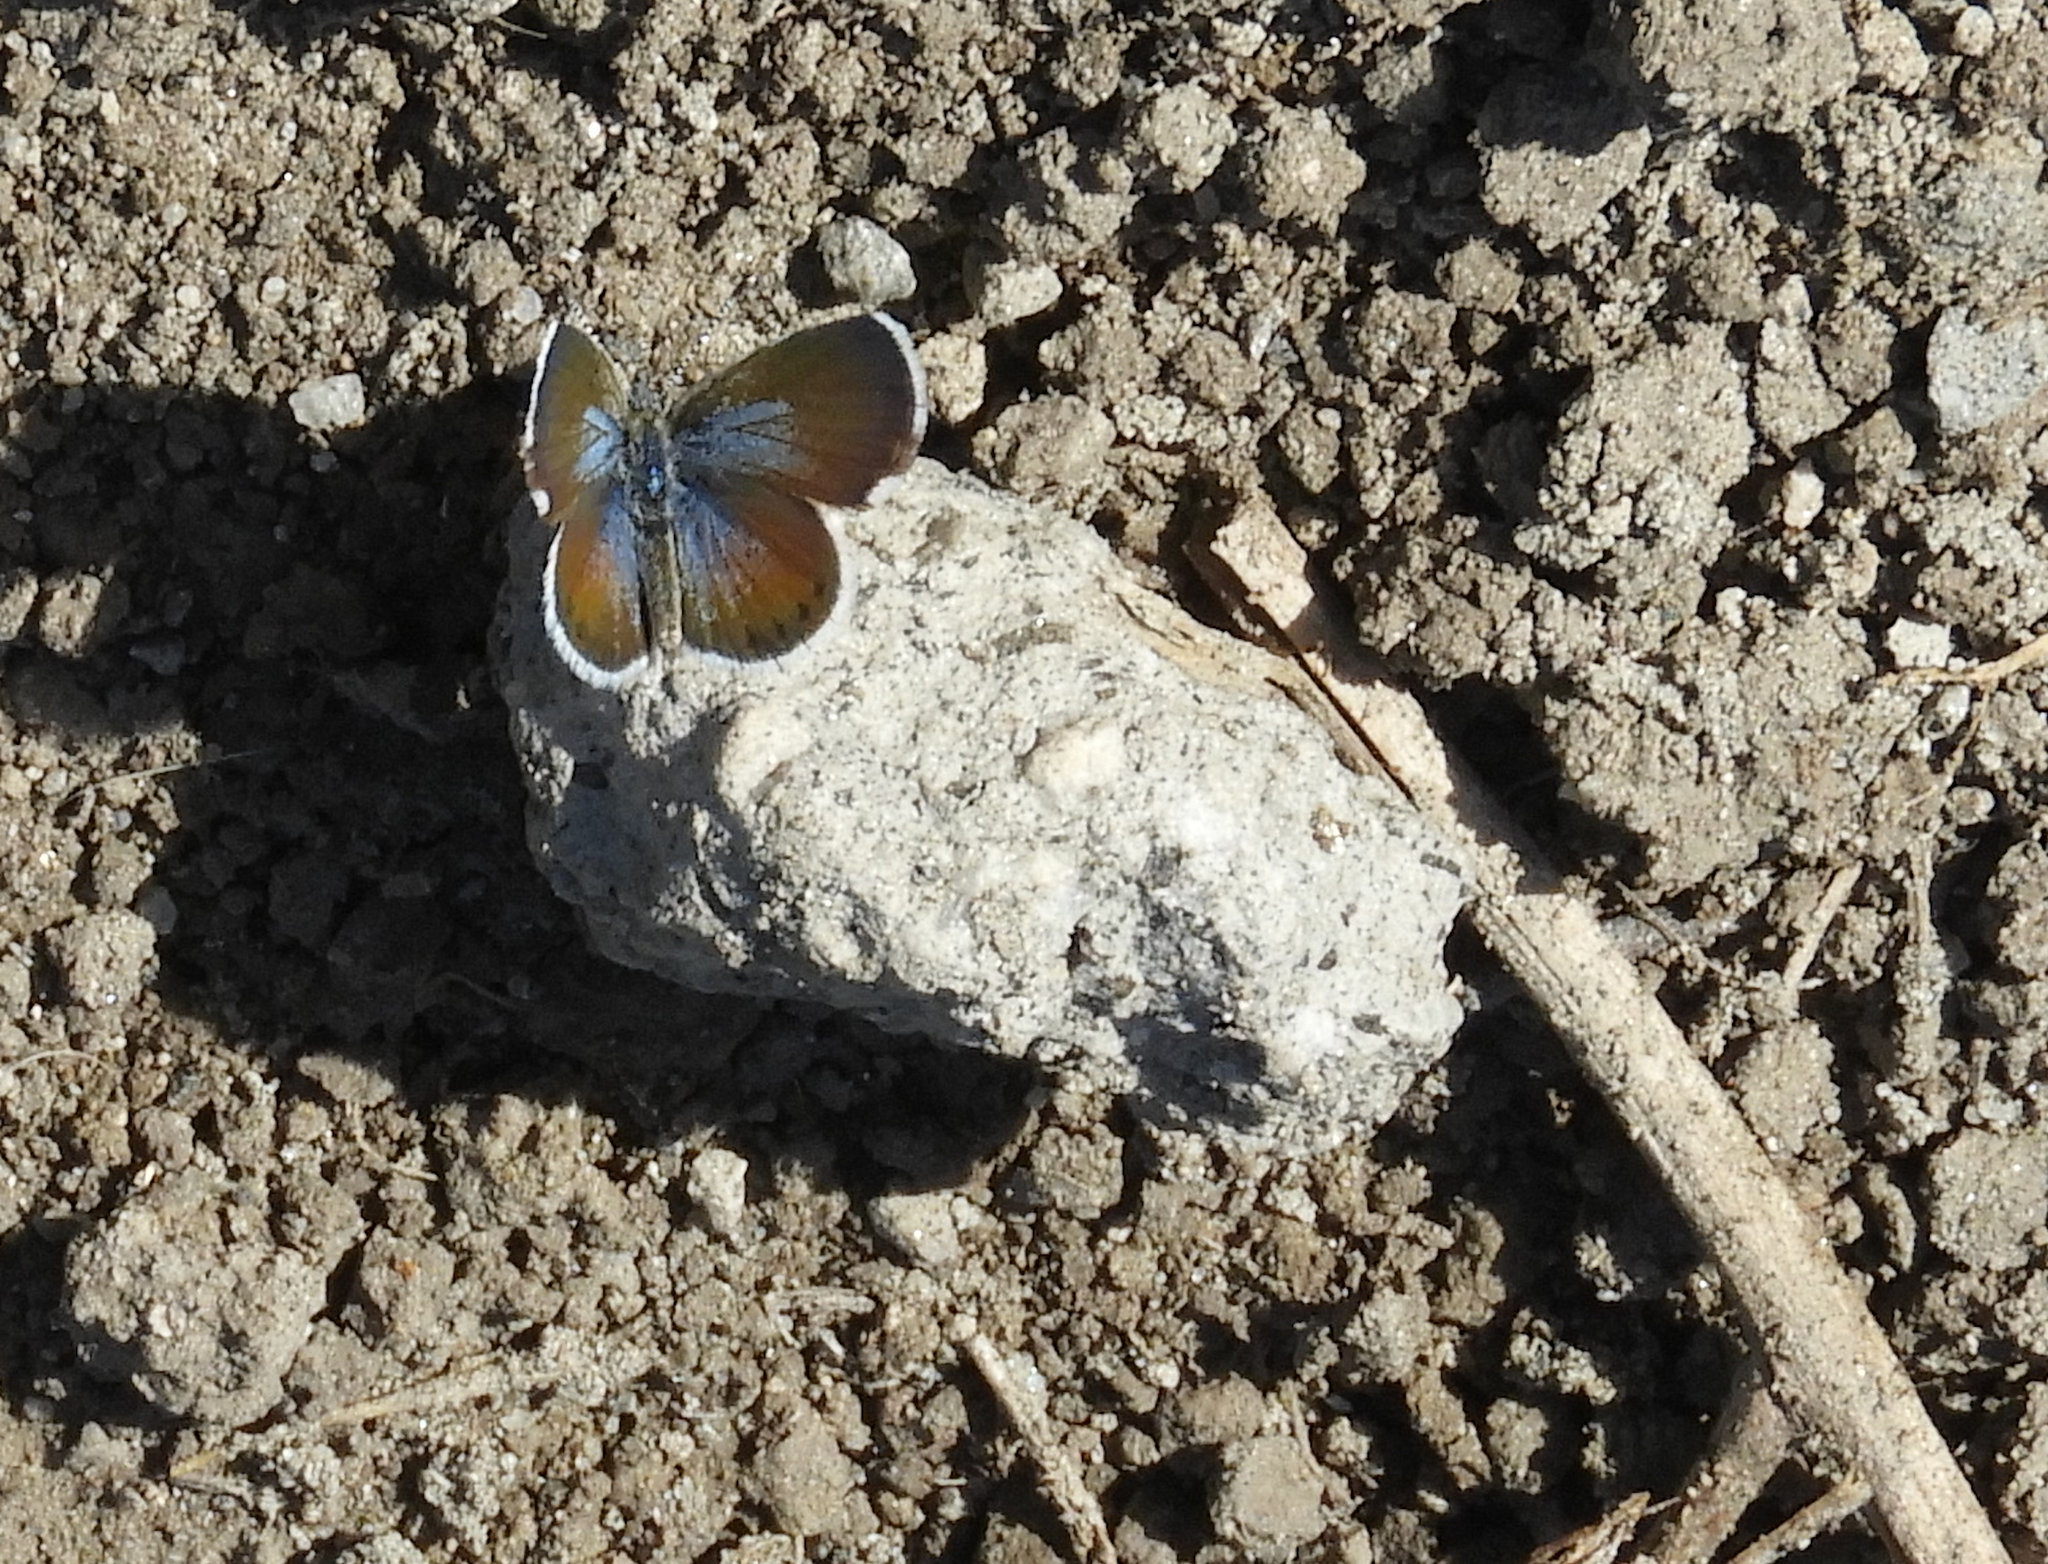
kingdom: Animalia
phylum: Arthropoda
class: Insecta
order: Lepidoptera
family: Lycaenidae
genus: Brephidium
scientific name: Brephidium exilis
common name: Pygmy blue
